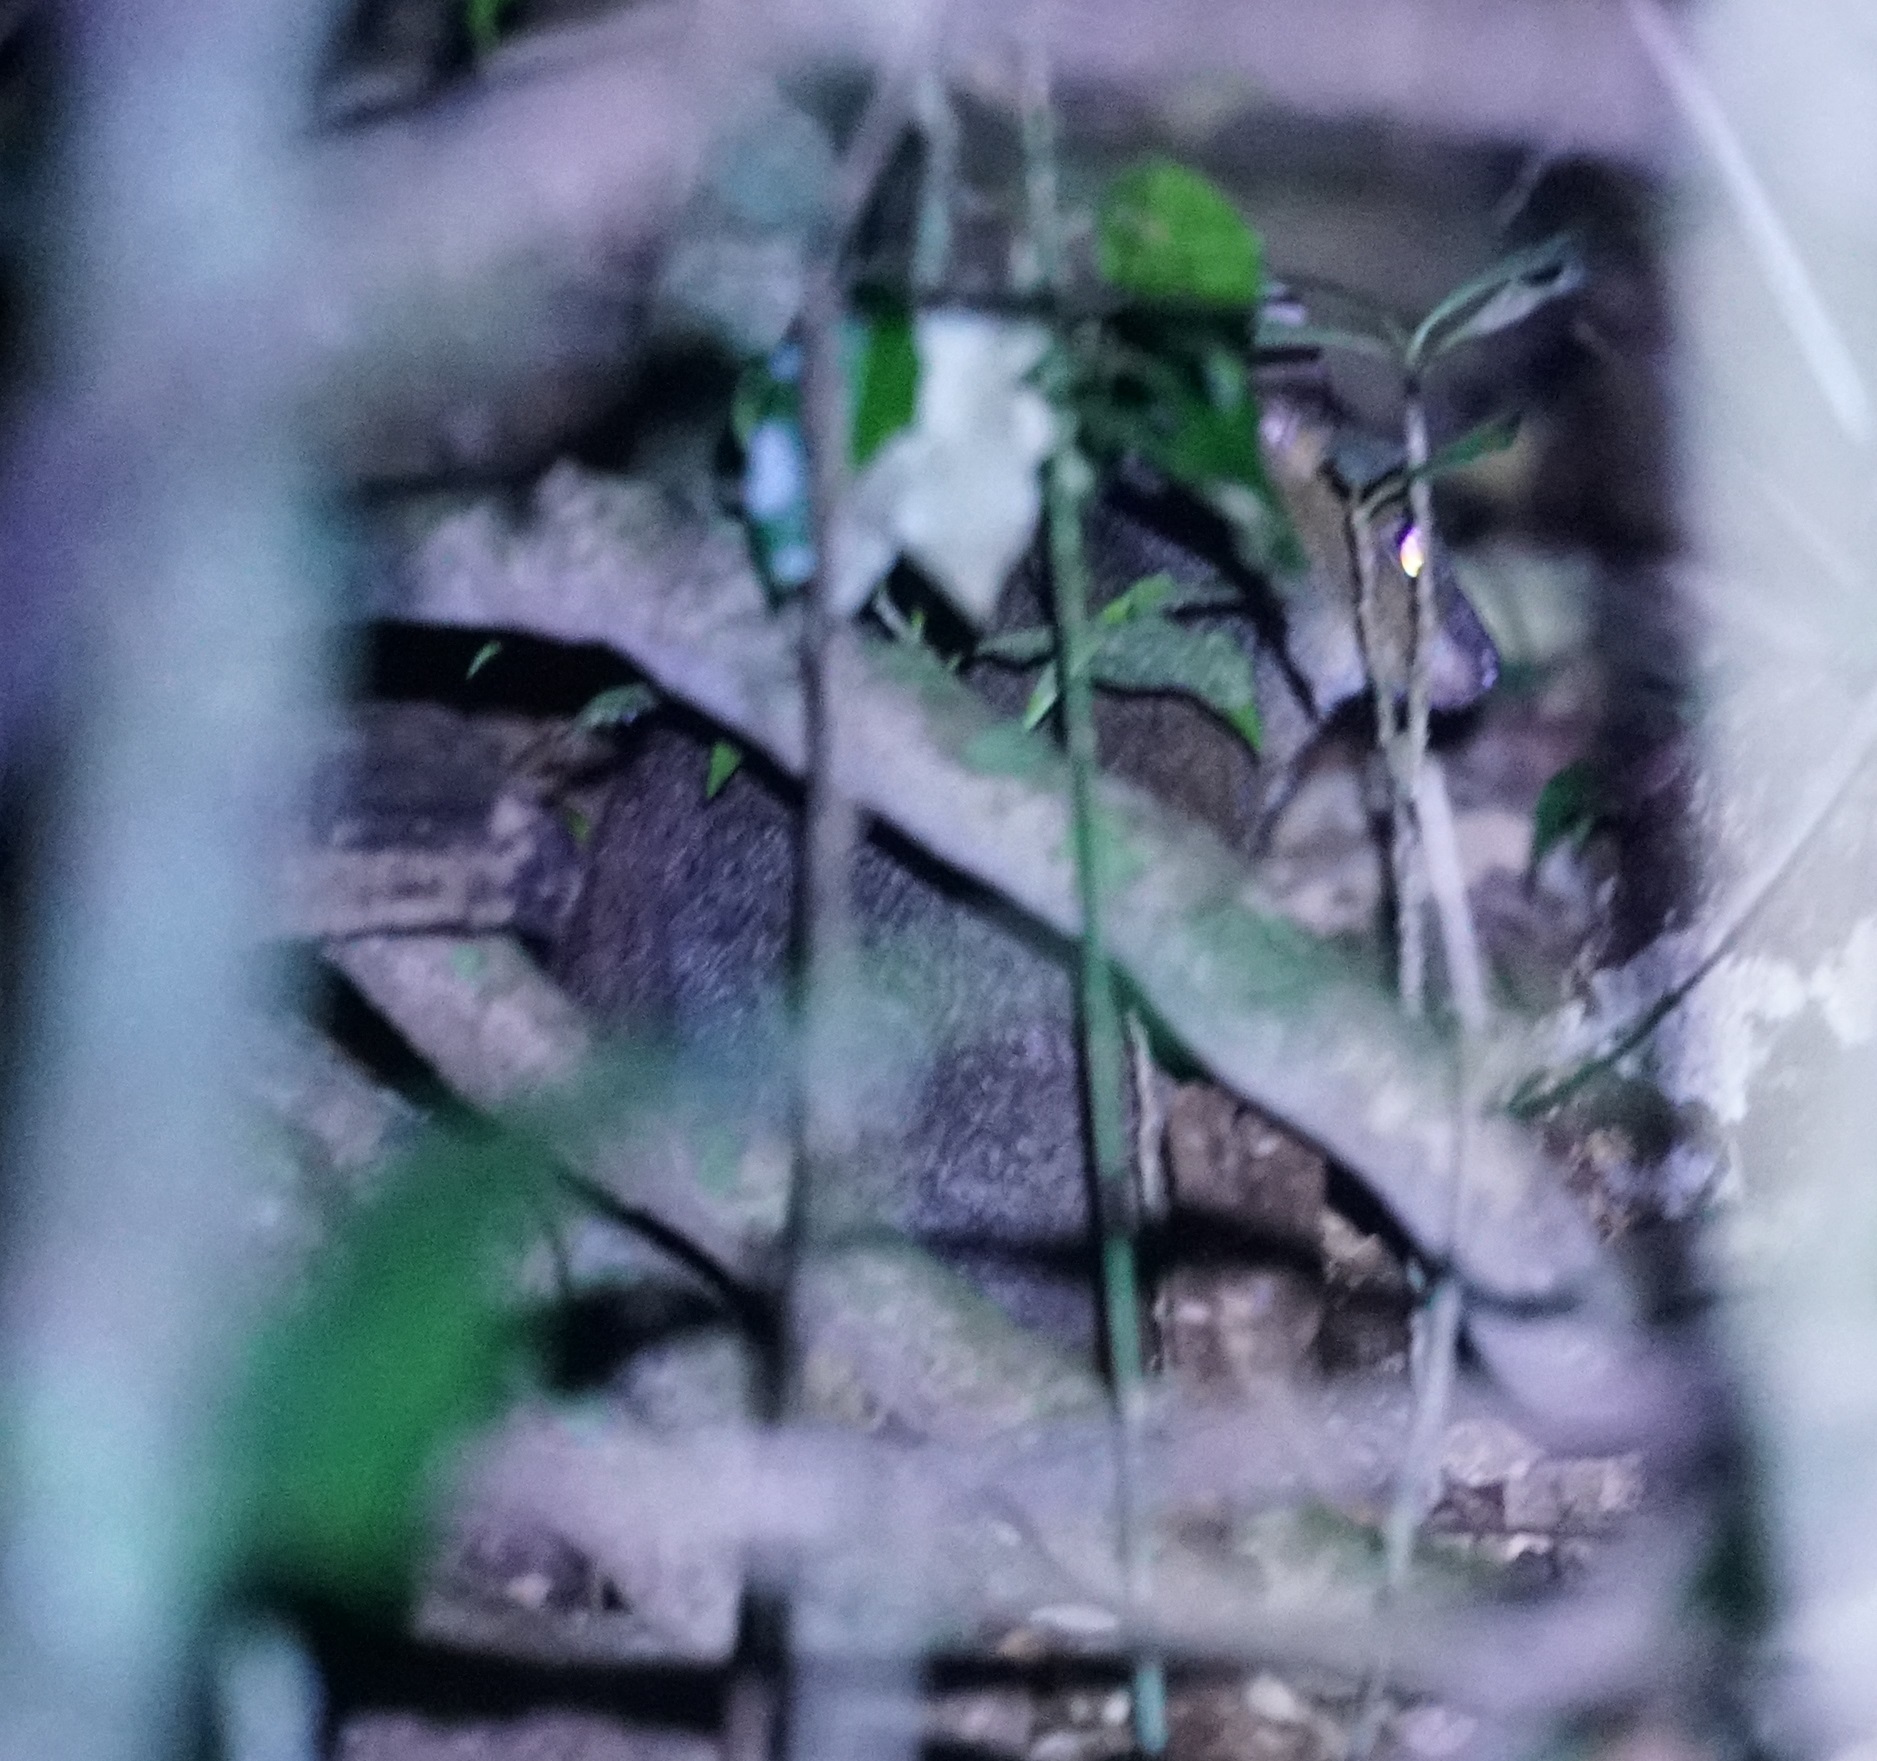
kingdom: Animalia
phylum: Chordata
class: Mammalia
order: Diprotodontia
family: Macropodidae
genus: Thylogale
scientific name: Thylogale stigmatica
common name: Red-legged pademelon
